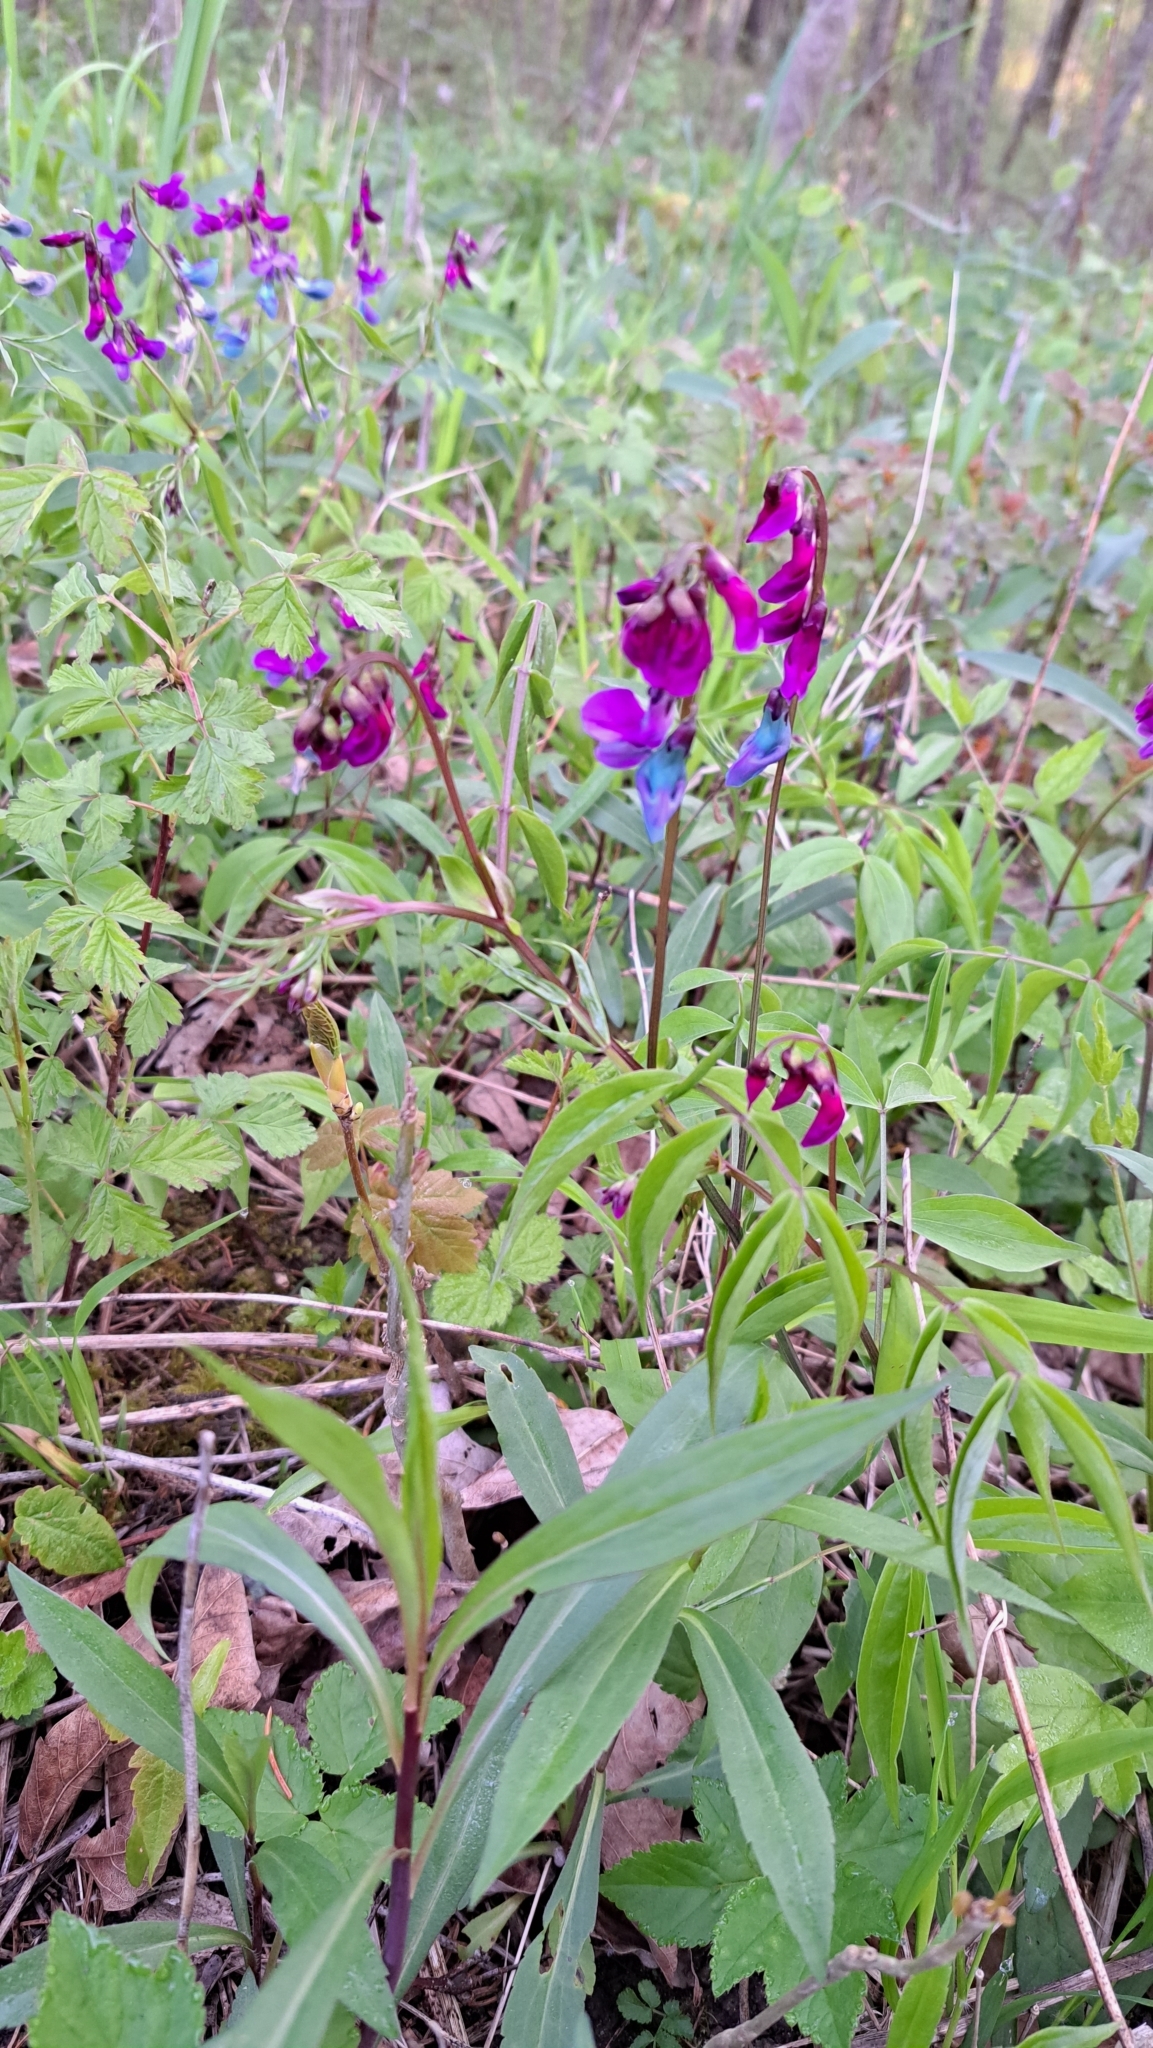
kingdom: Plantae
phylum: Tracheophyta
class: Magnoliopsida
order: Fabales
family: Fabaceae
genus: Lathyrus
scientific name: Lathyrus vernus
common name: Spring pea
